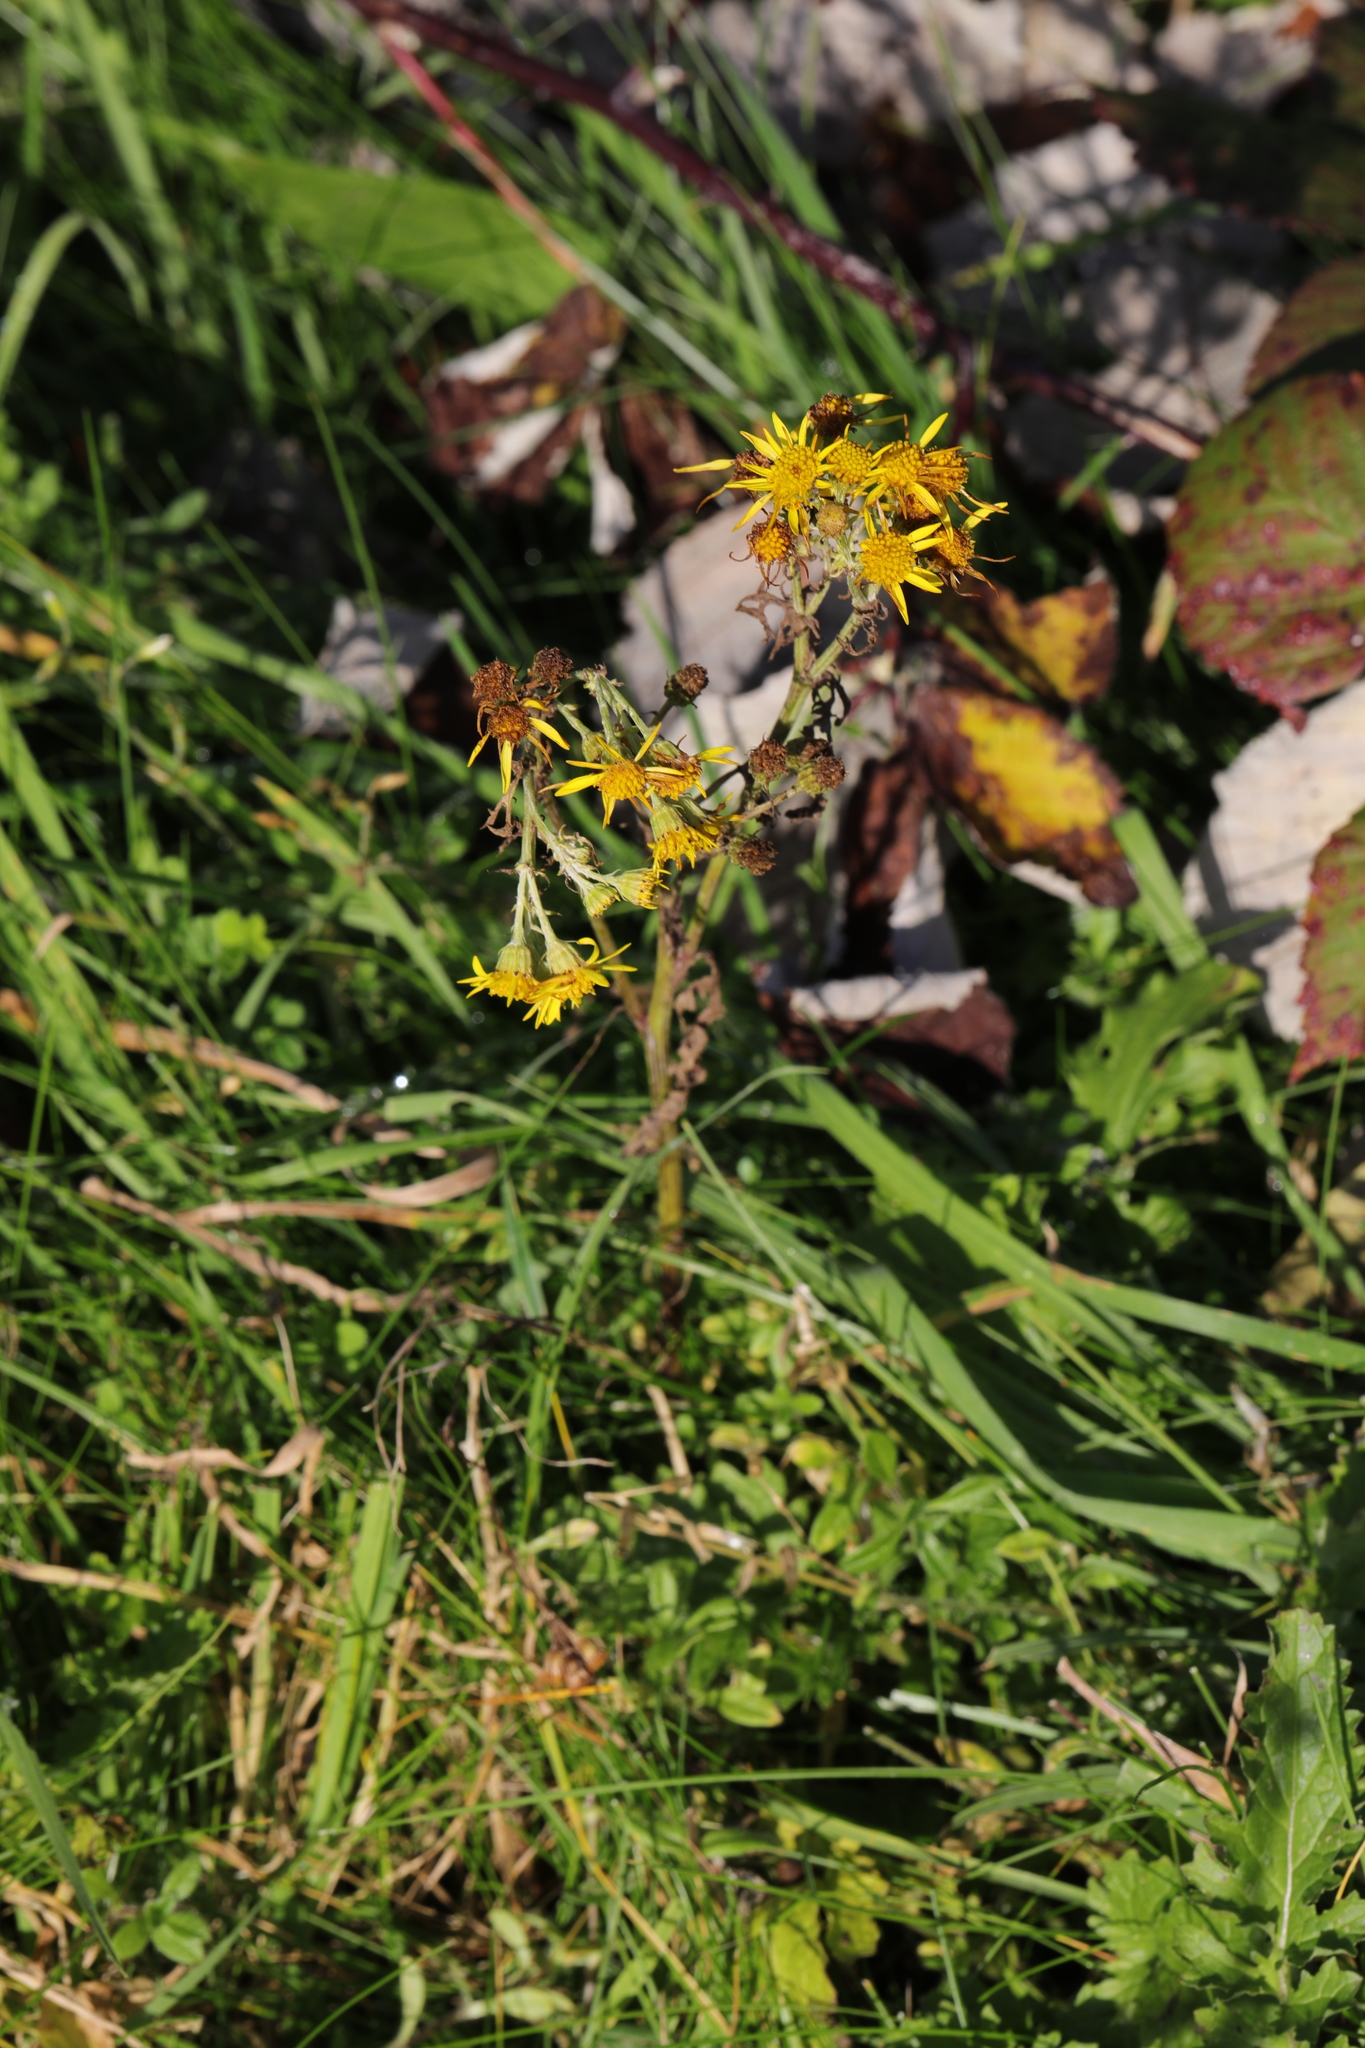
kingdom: Plantae
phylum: Tracheophyta
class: Magnoliopsida
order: Asterales
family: Asteraceae
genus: Jacobaea
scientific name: Jacobaea vulgaris
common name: Stinking willie
